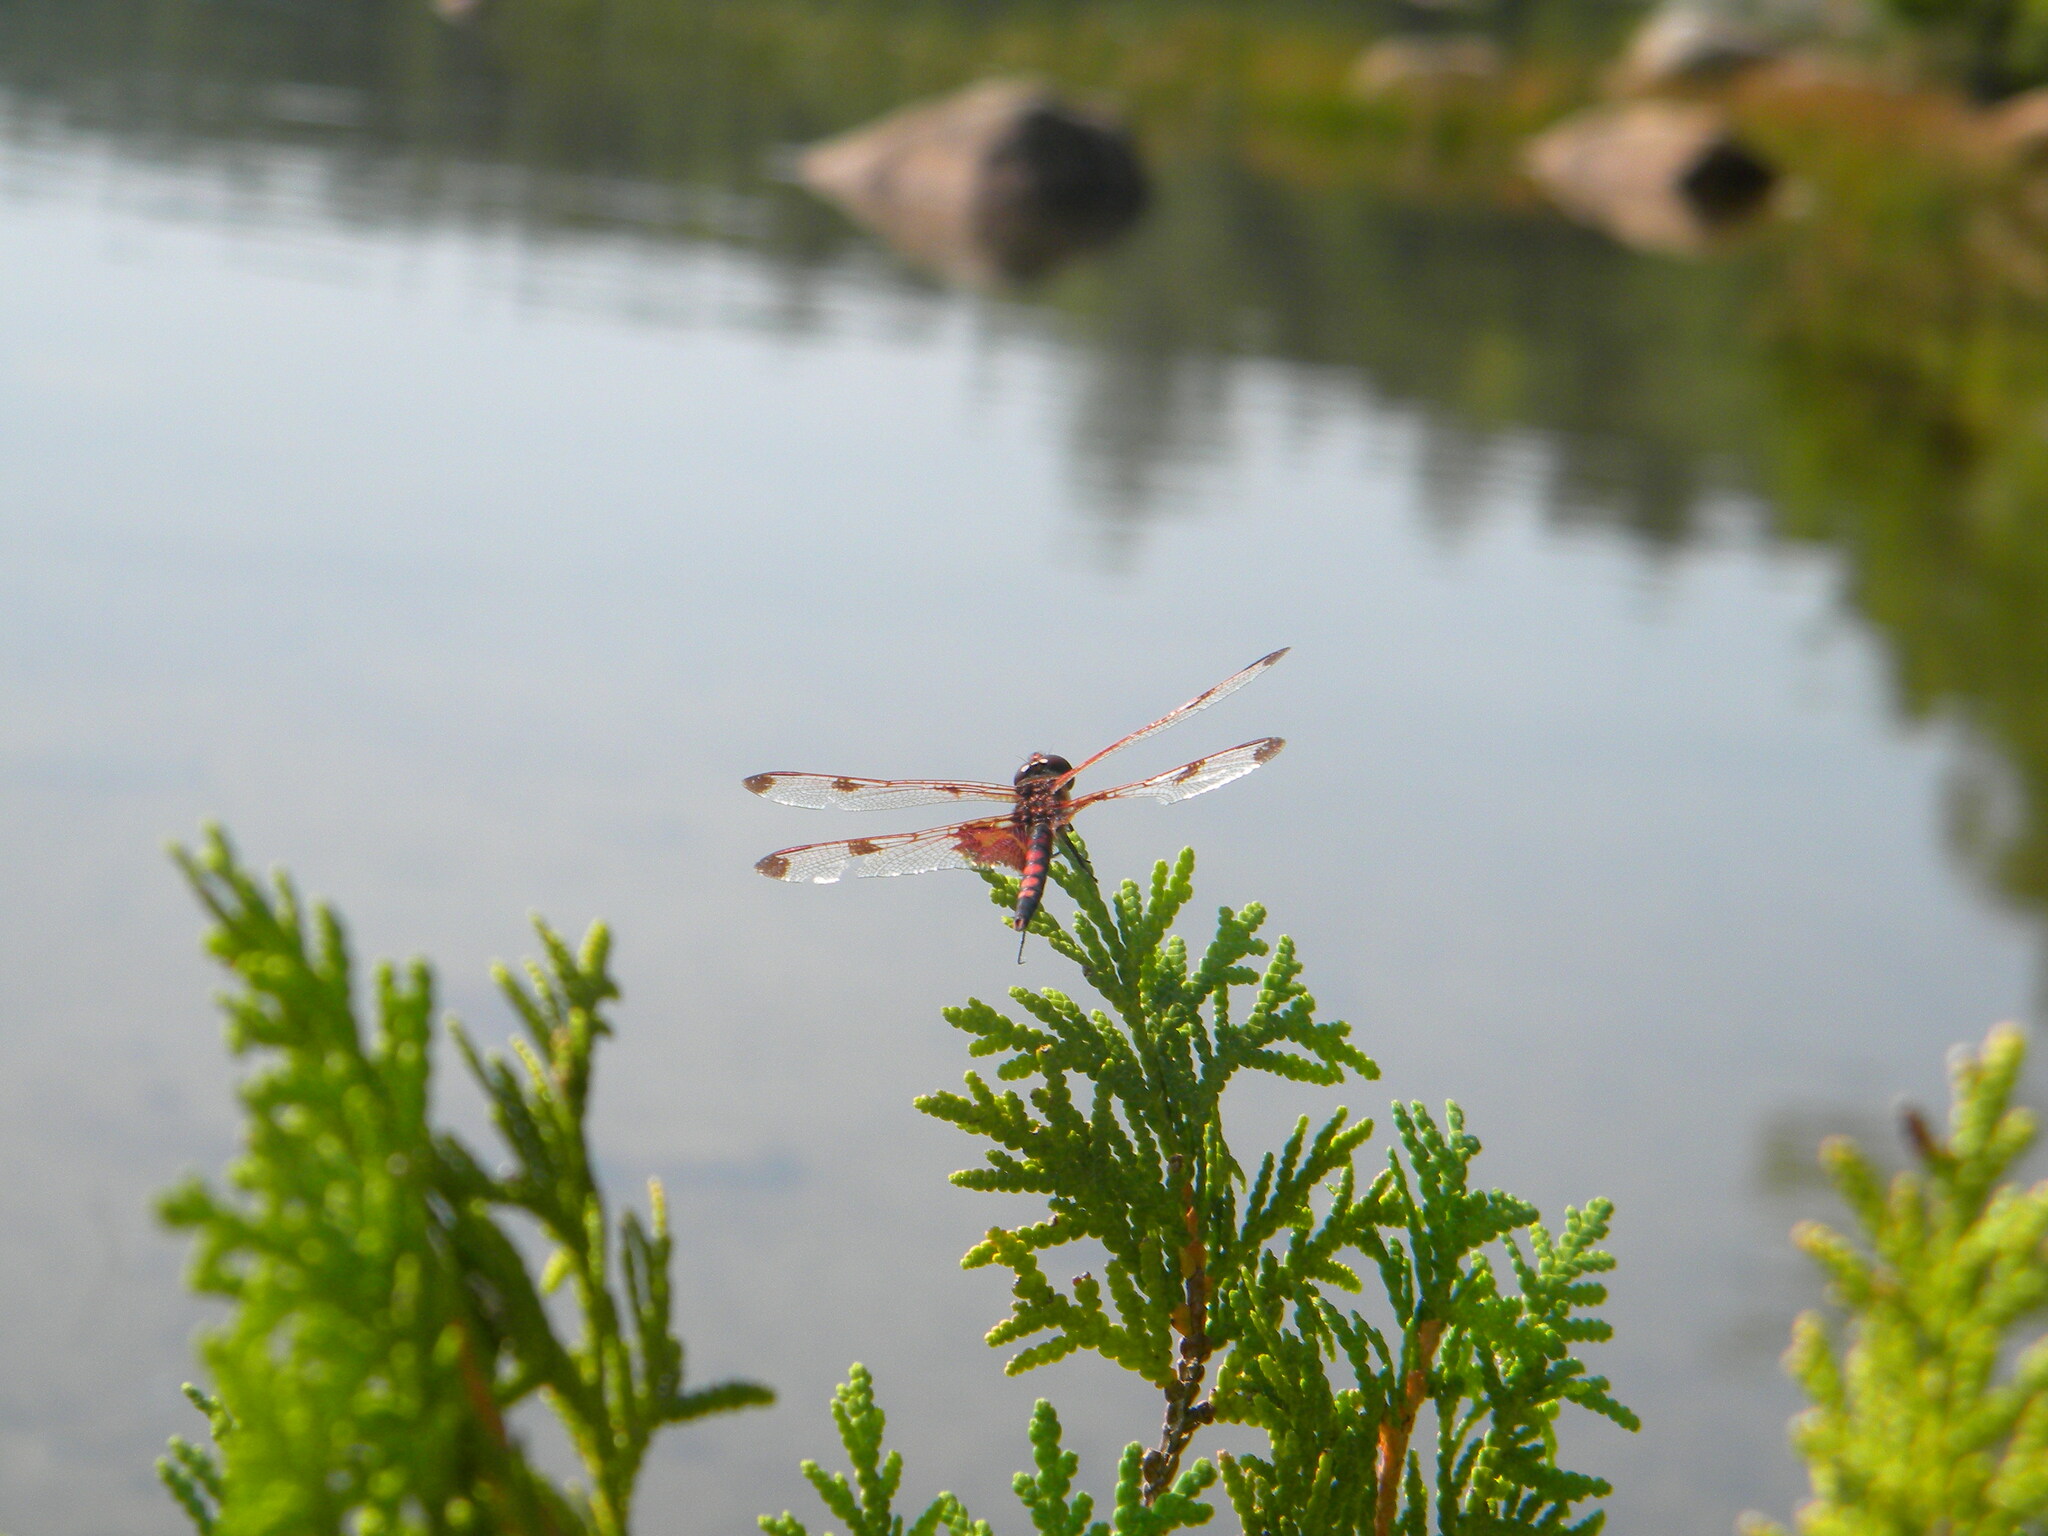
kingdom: Animalia
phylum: Arthropoda
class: Insecta
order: Odonata
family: Libellulidae
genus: Celithemis
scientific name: Celithemis elisa
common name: Calico pennant
